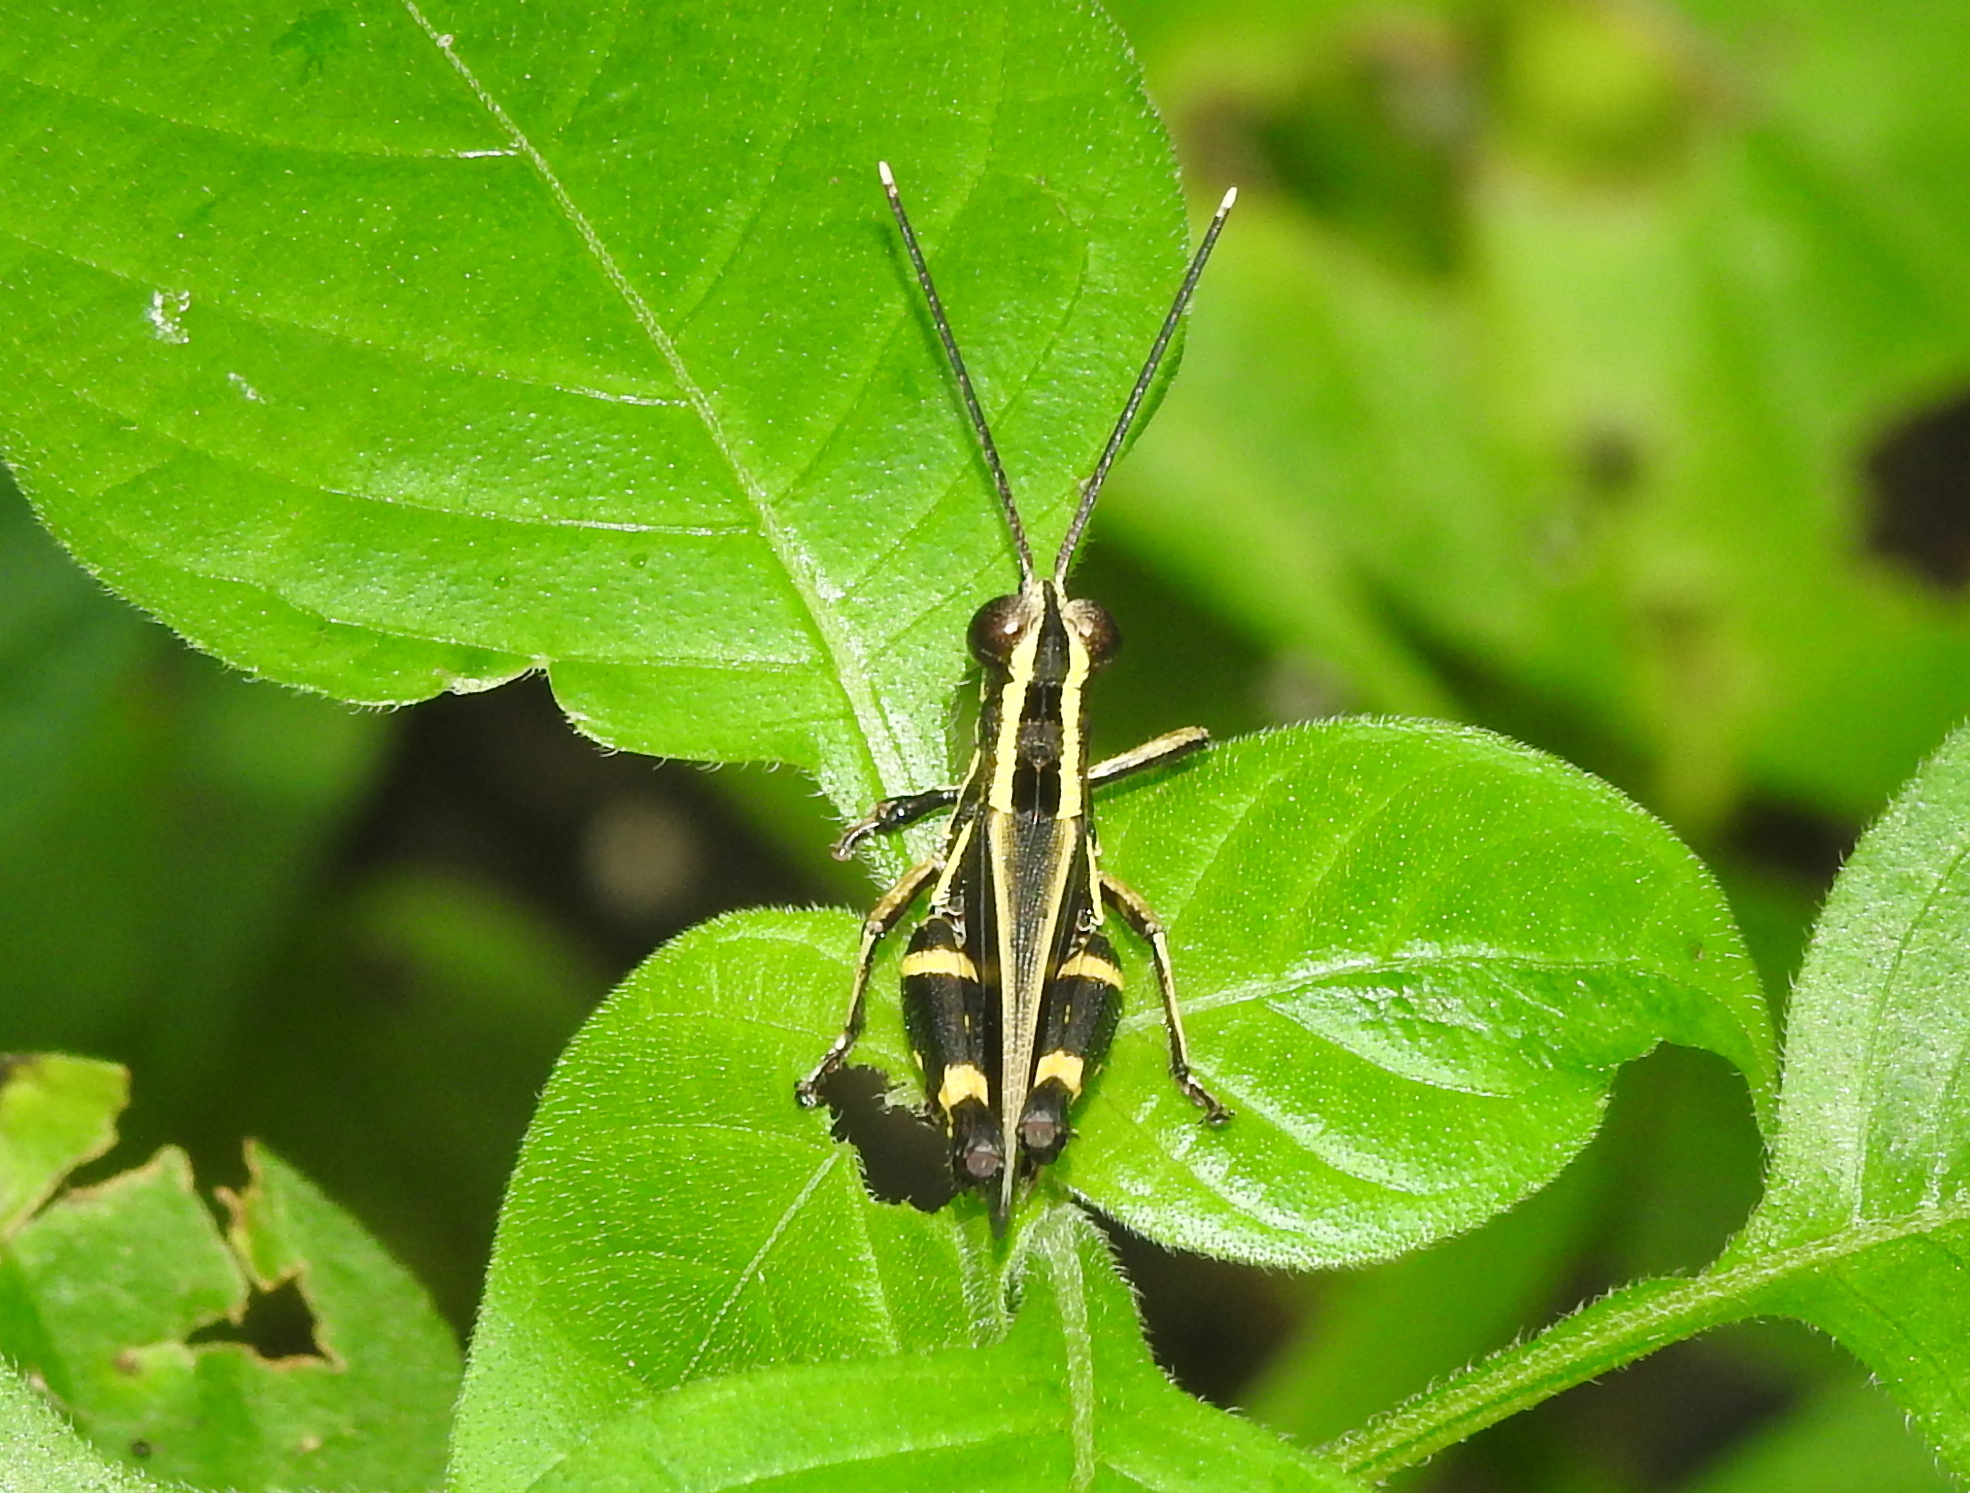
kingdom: Animalia
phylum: Arthropoda
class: Insecta
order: Orthoptera
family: Acrididae
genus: Traulia
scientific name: Traulia azureipennis
